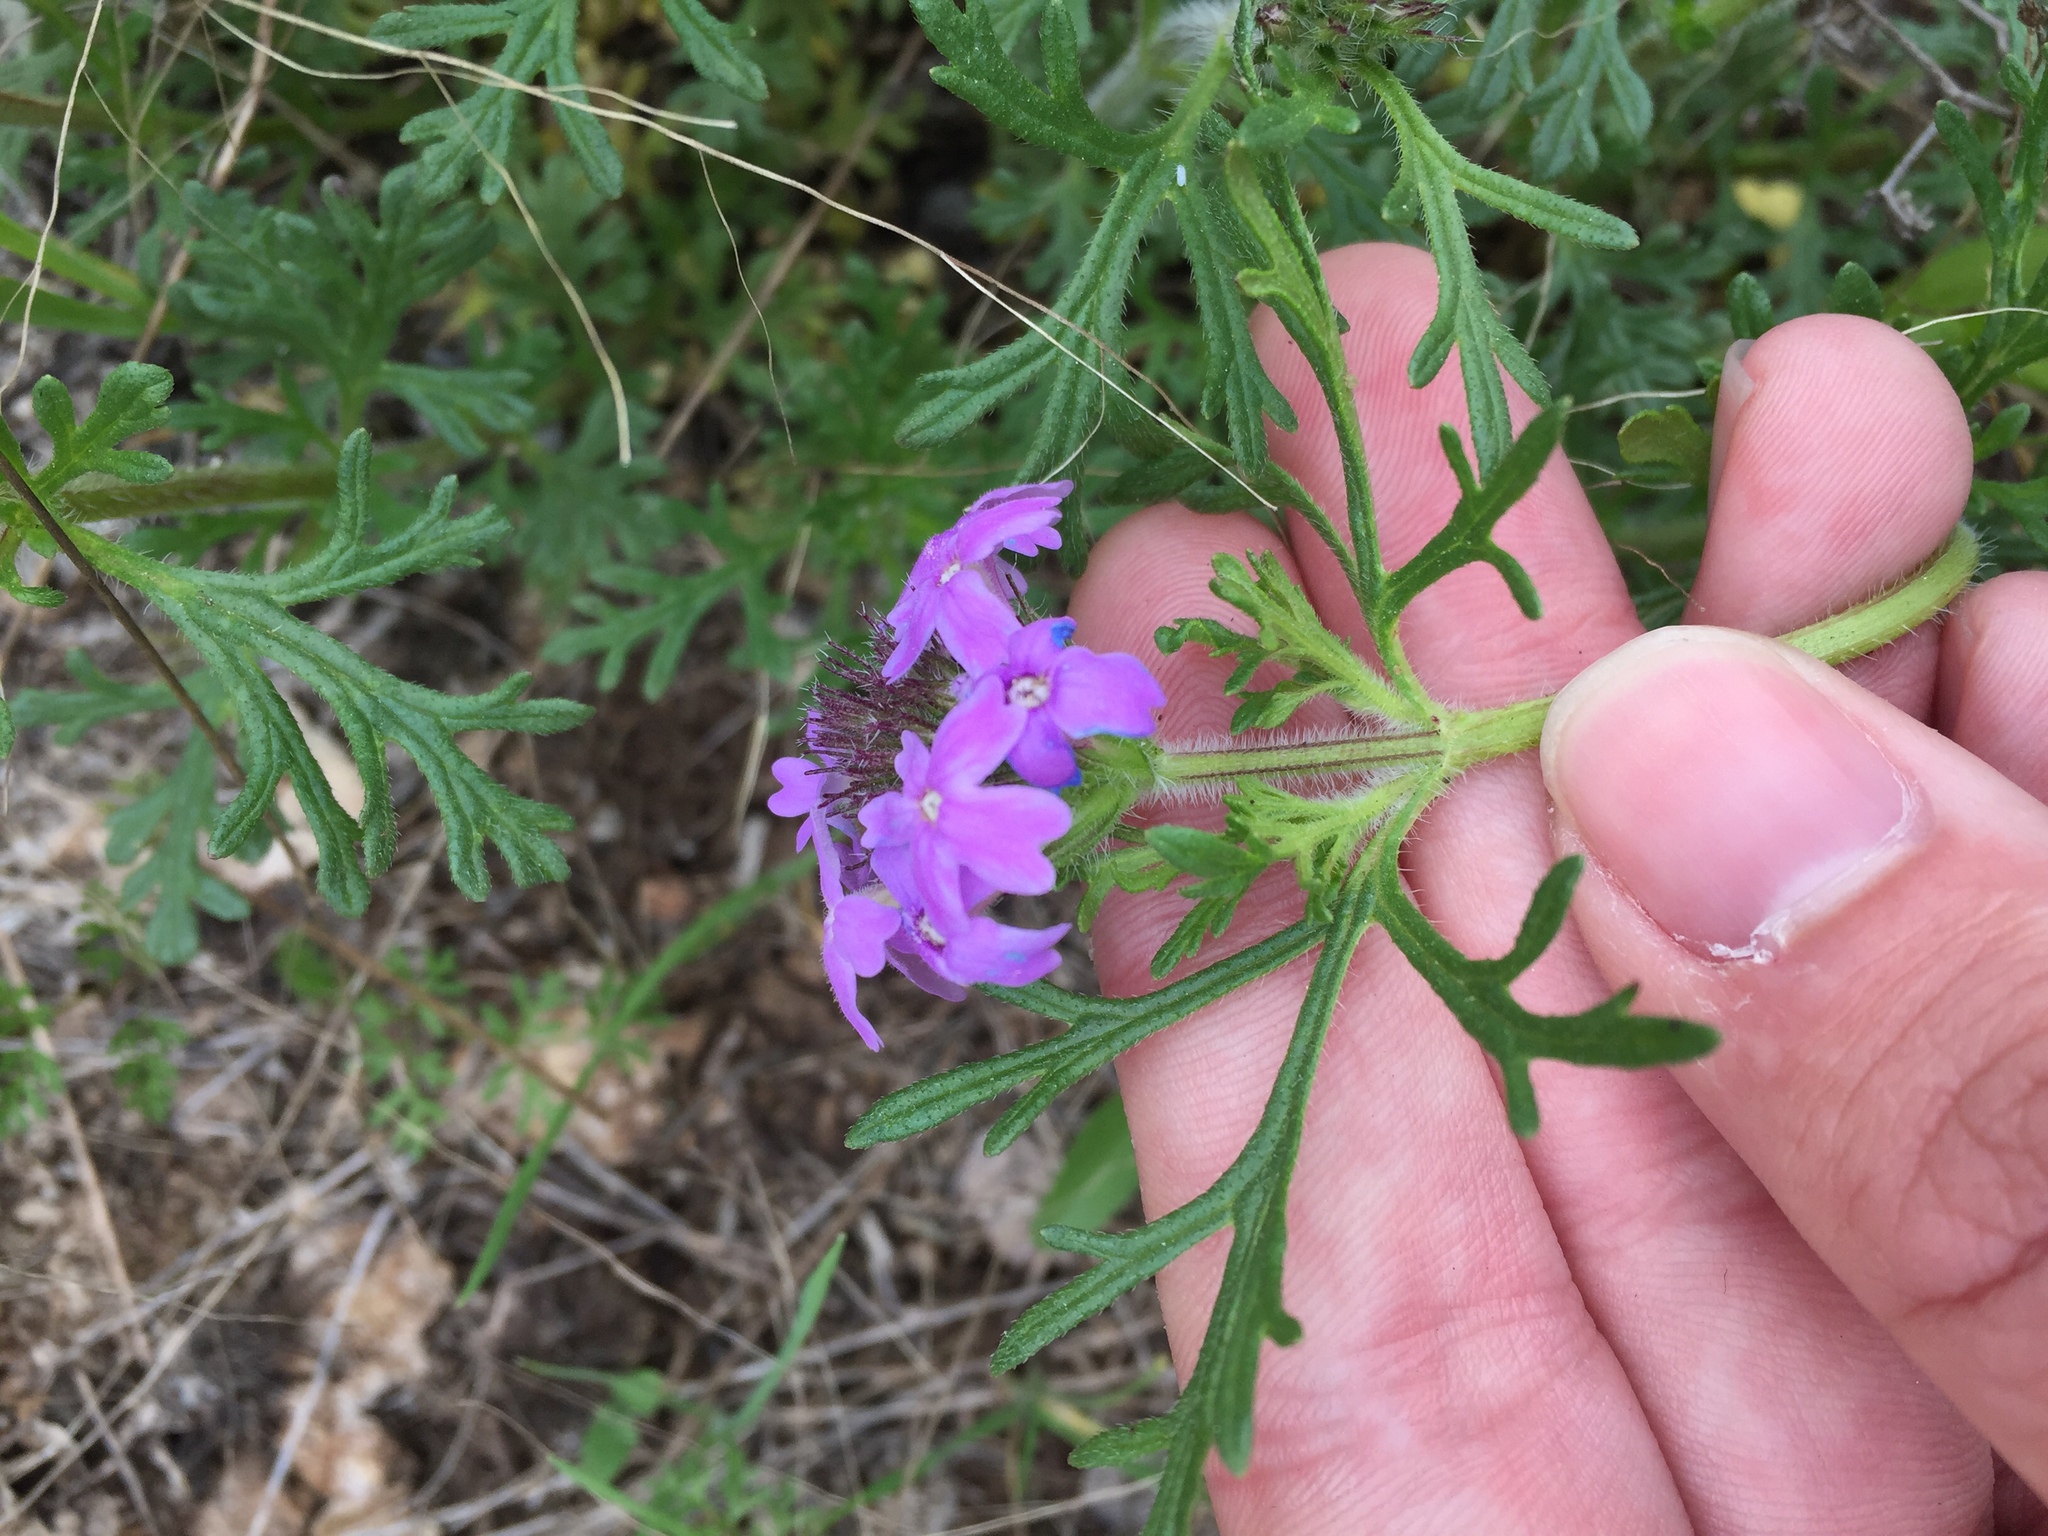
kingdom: Plantae
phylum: Tracheophyta
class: Magnoliopsida
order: Lamiales
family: Verbenaceae
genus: Verbena
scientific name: Verbena bipinnatifida
